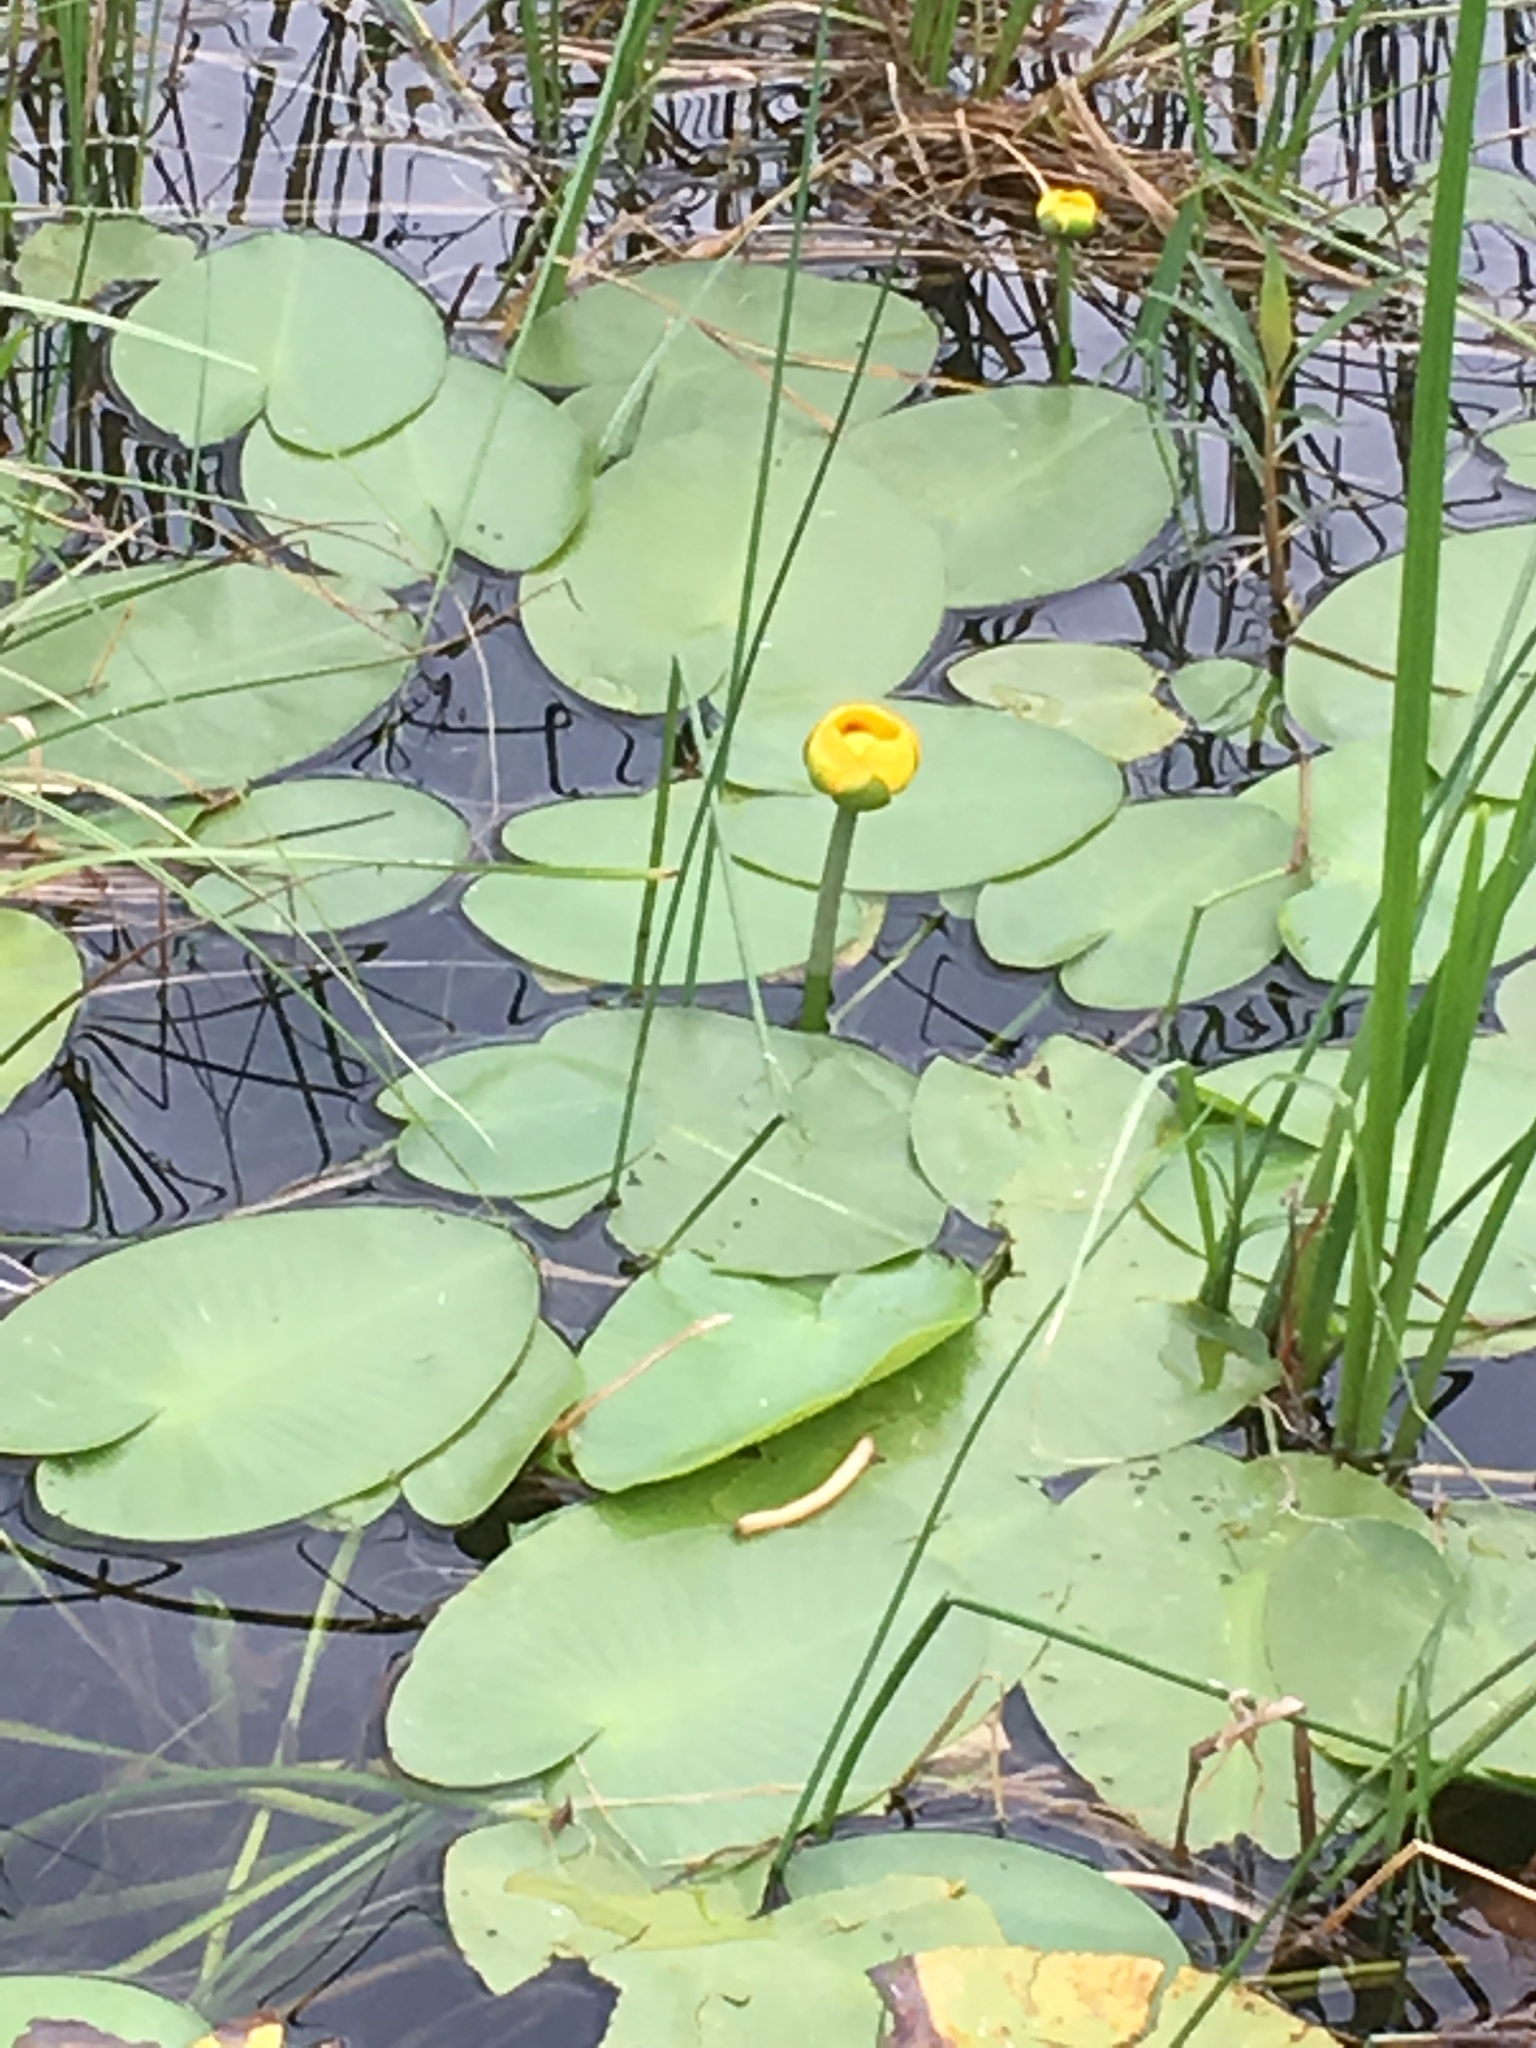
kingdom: Plantae
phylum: Tracheophyta
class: Magnoliopsida
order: Nymphaeales
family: Nymphaeaceae
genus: Nuphar
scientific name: Nuphar variegata
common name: Beaver-root
